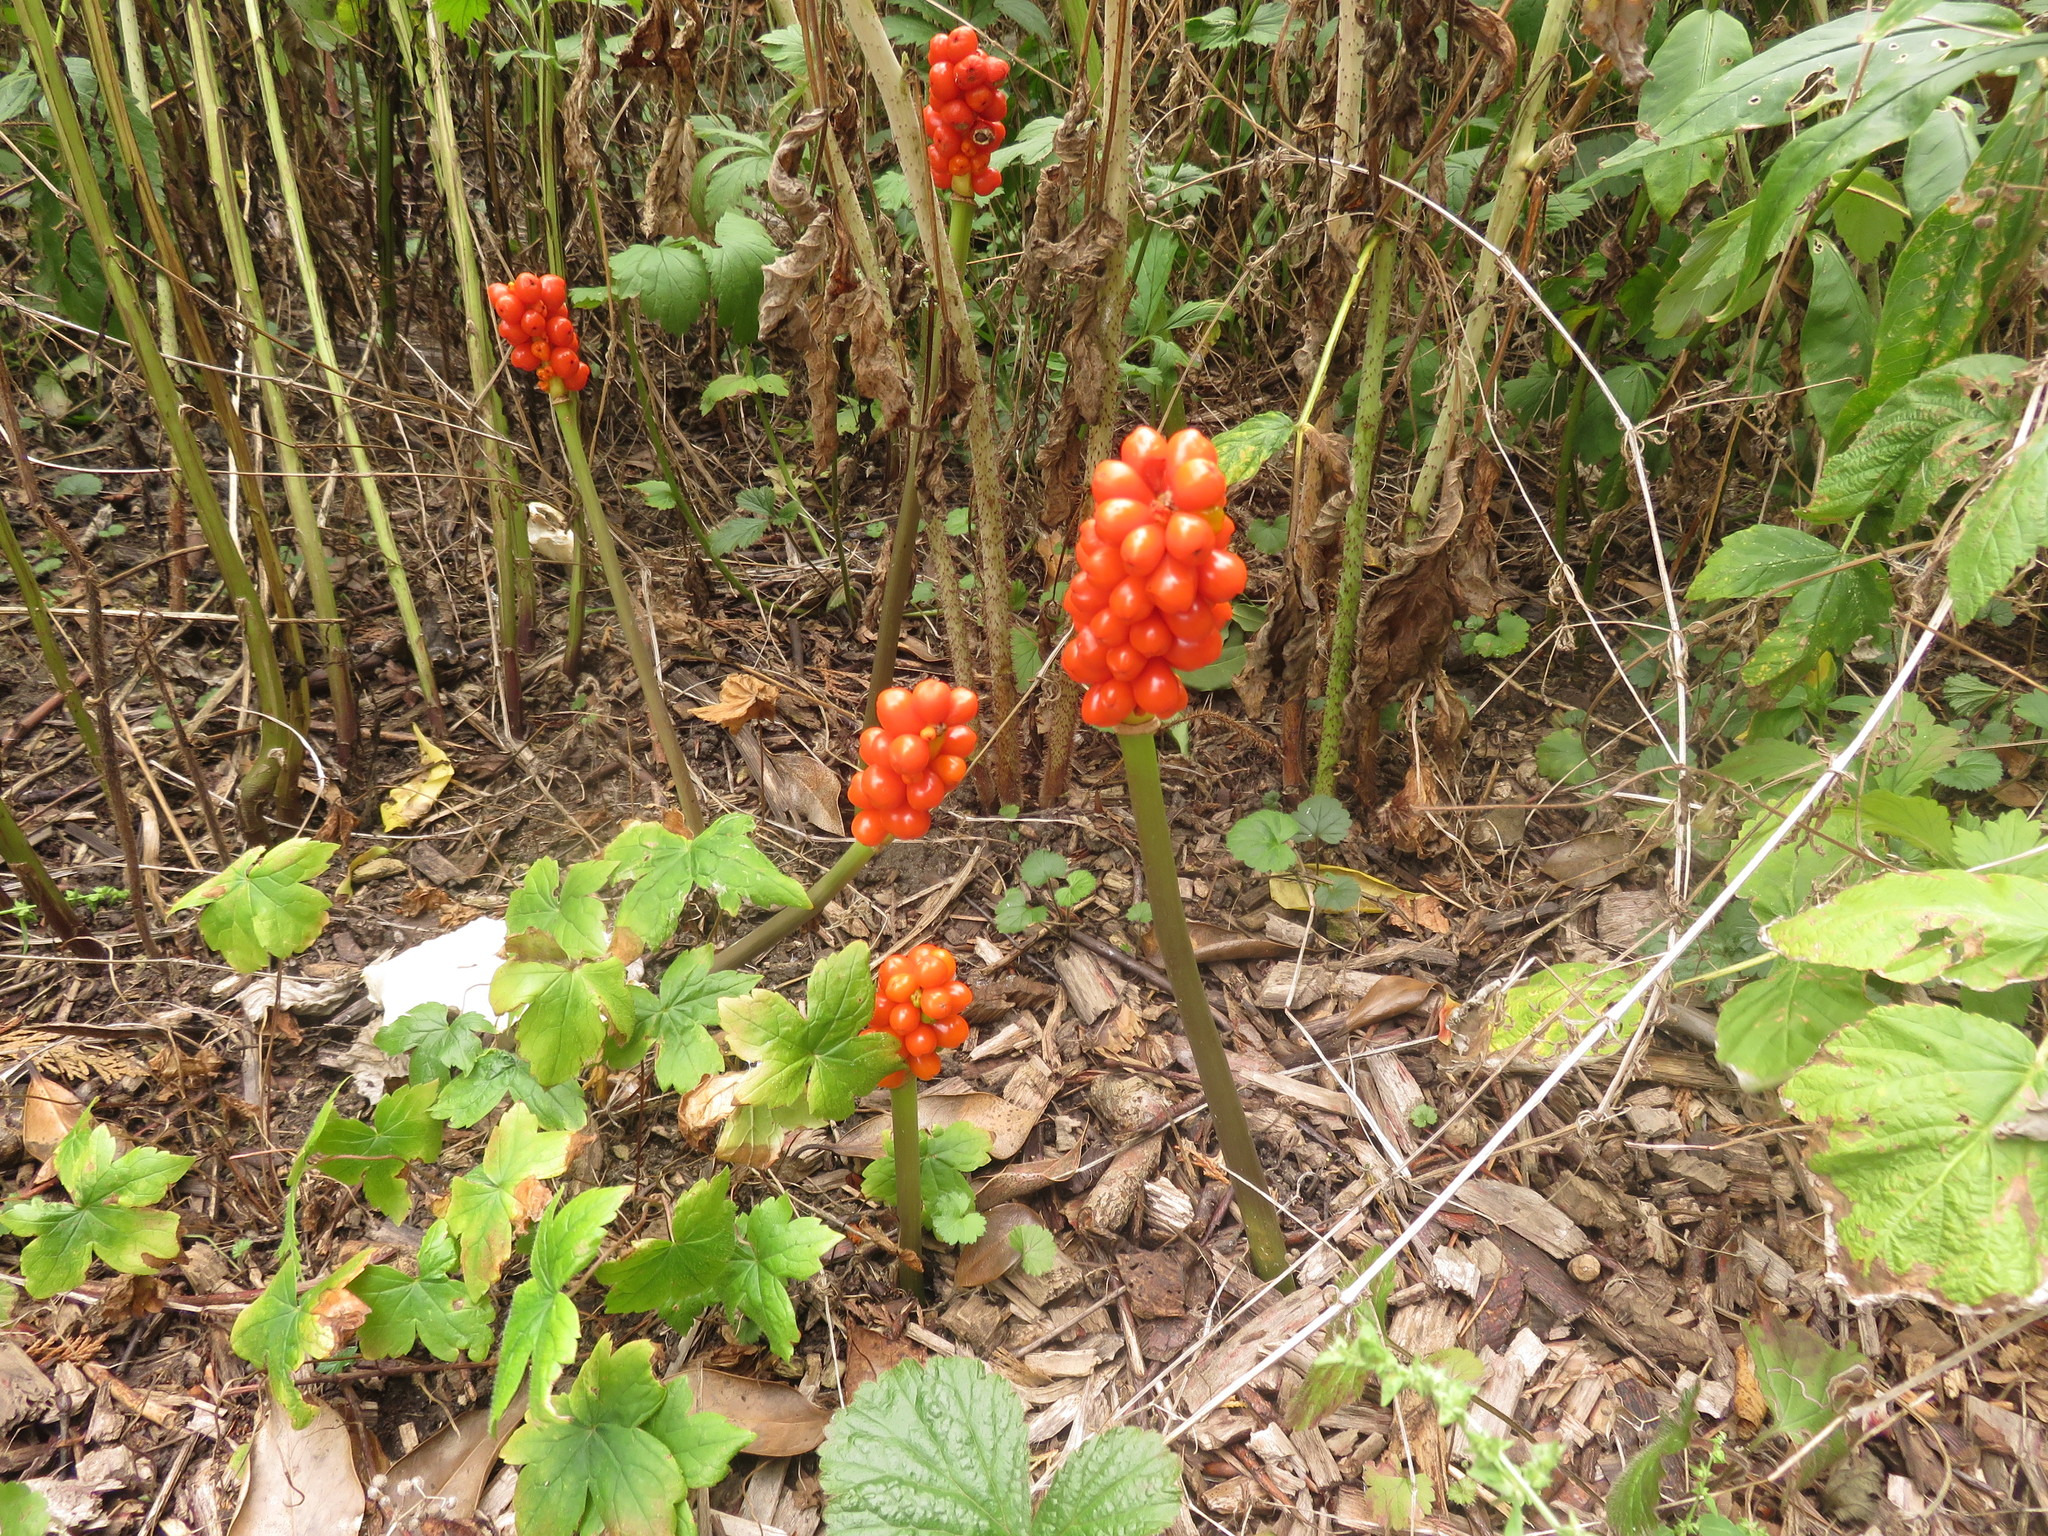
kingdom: Plantae
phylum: Tracheophyta
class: Liliopsida
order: Alismatales
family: Araceae
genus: Arum
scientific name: Arum maculatum
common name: Lords-and-ladies
